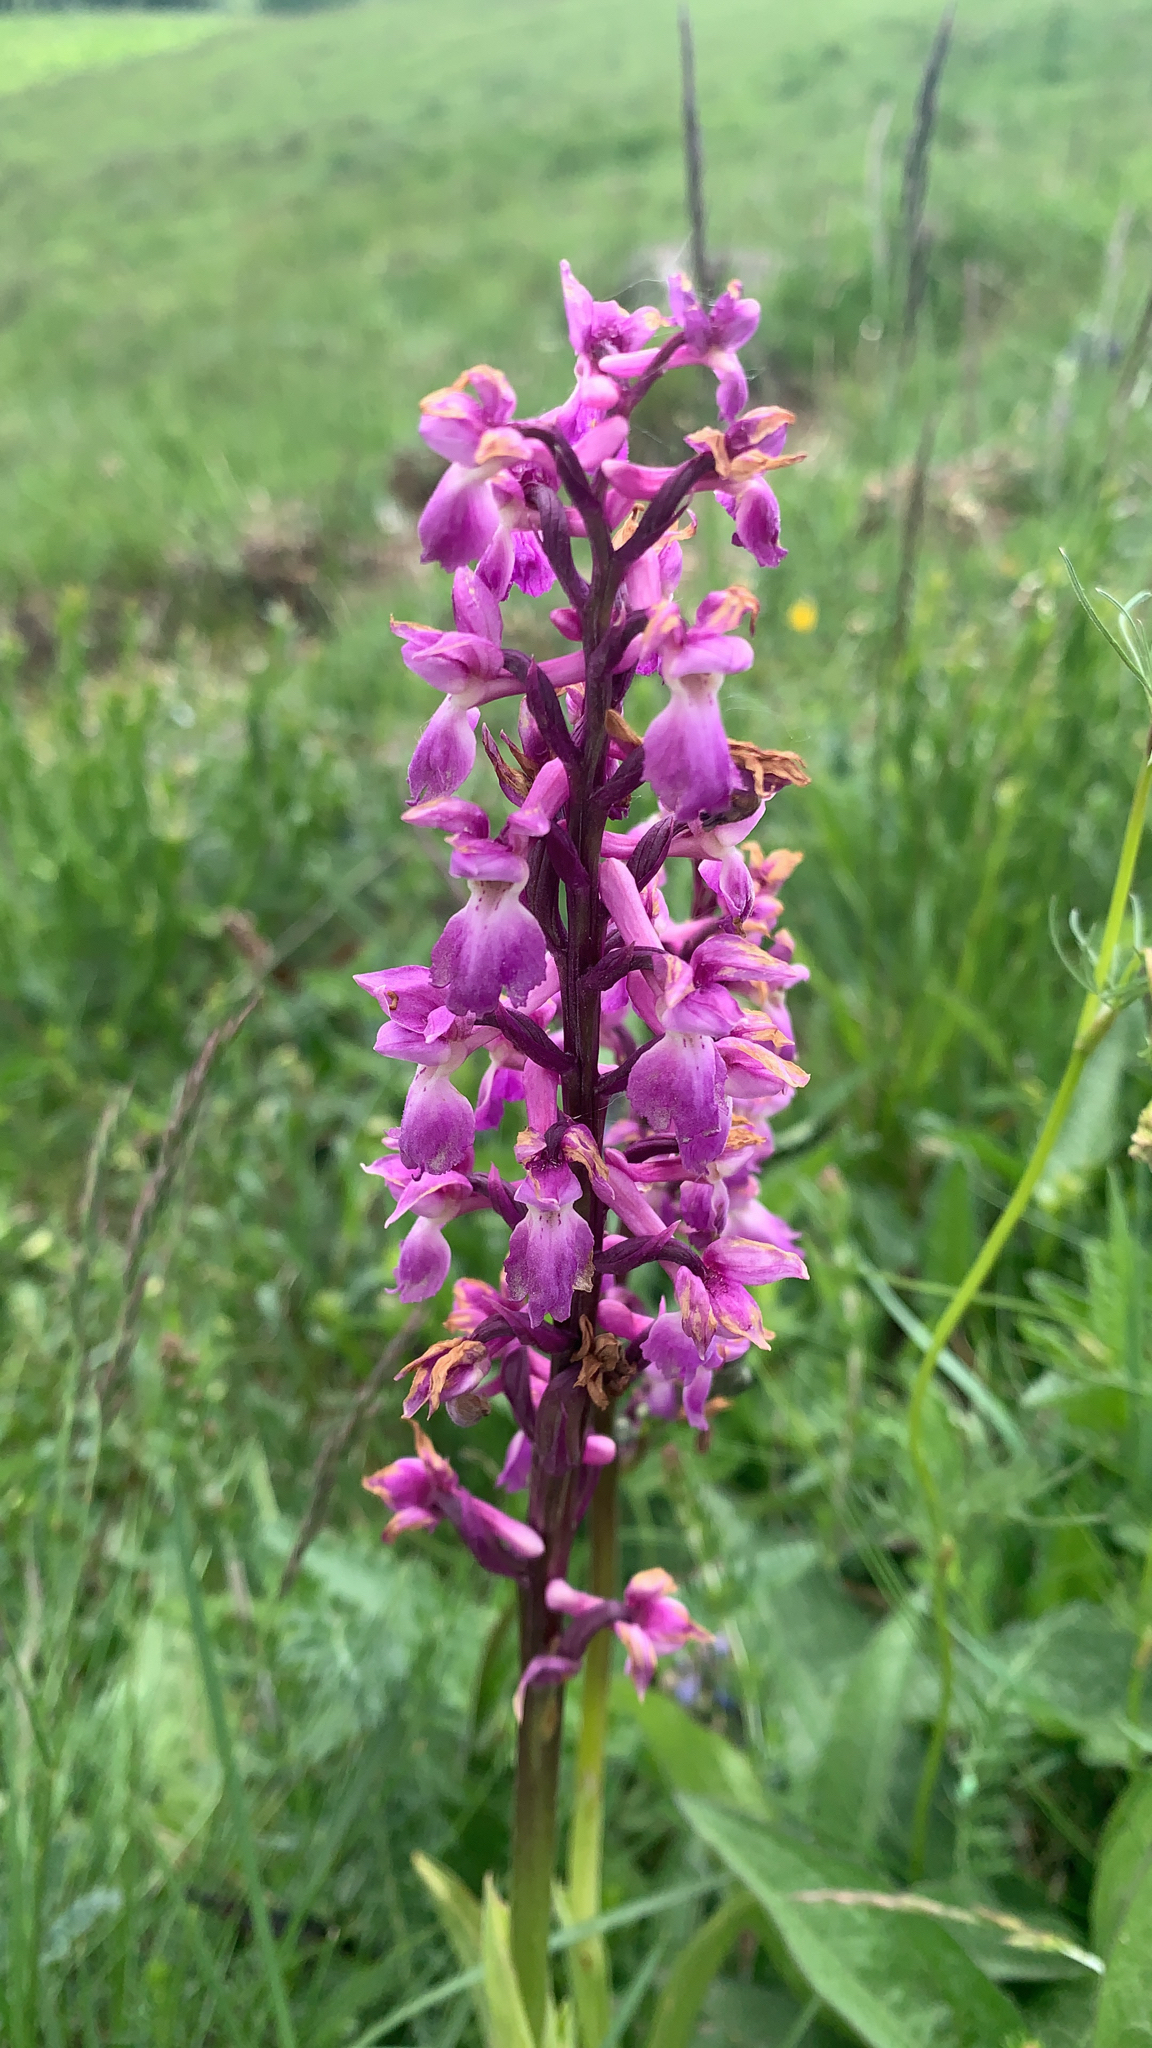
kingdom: Plantae
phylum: Tracheophyta
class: Liliopsida
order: Asparagales
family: Orchidaceae
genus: Orchis
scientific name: Orchis mascula
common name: Early-purple orchid
